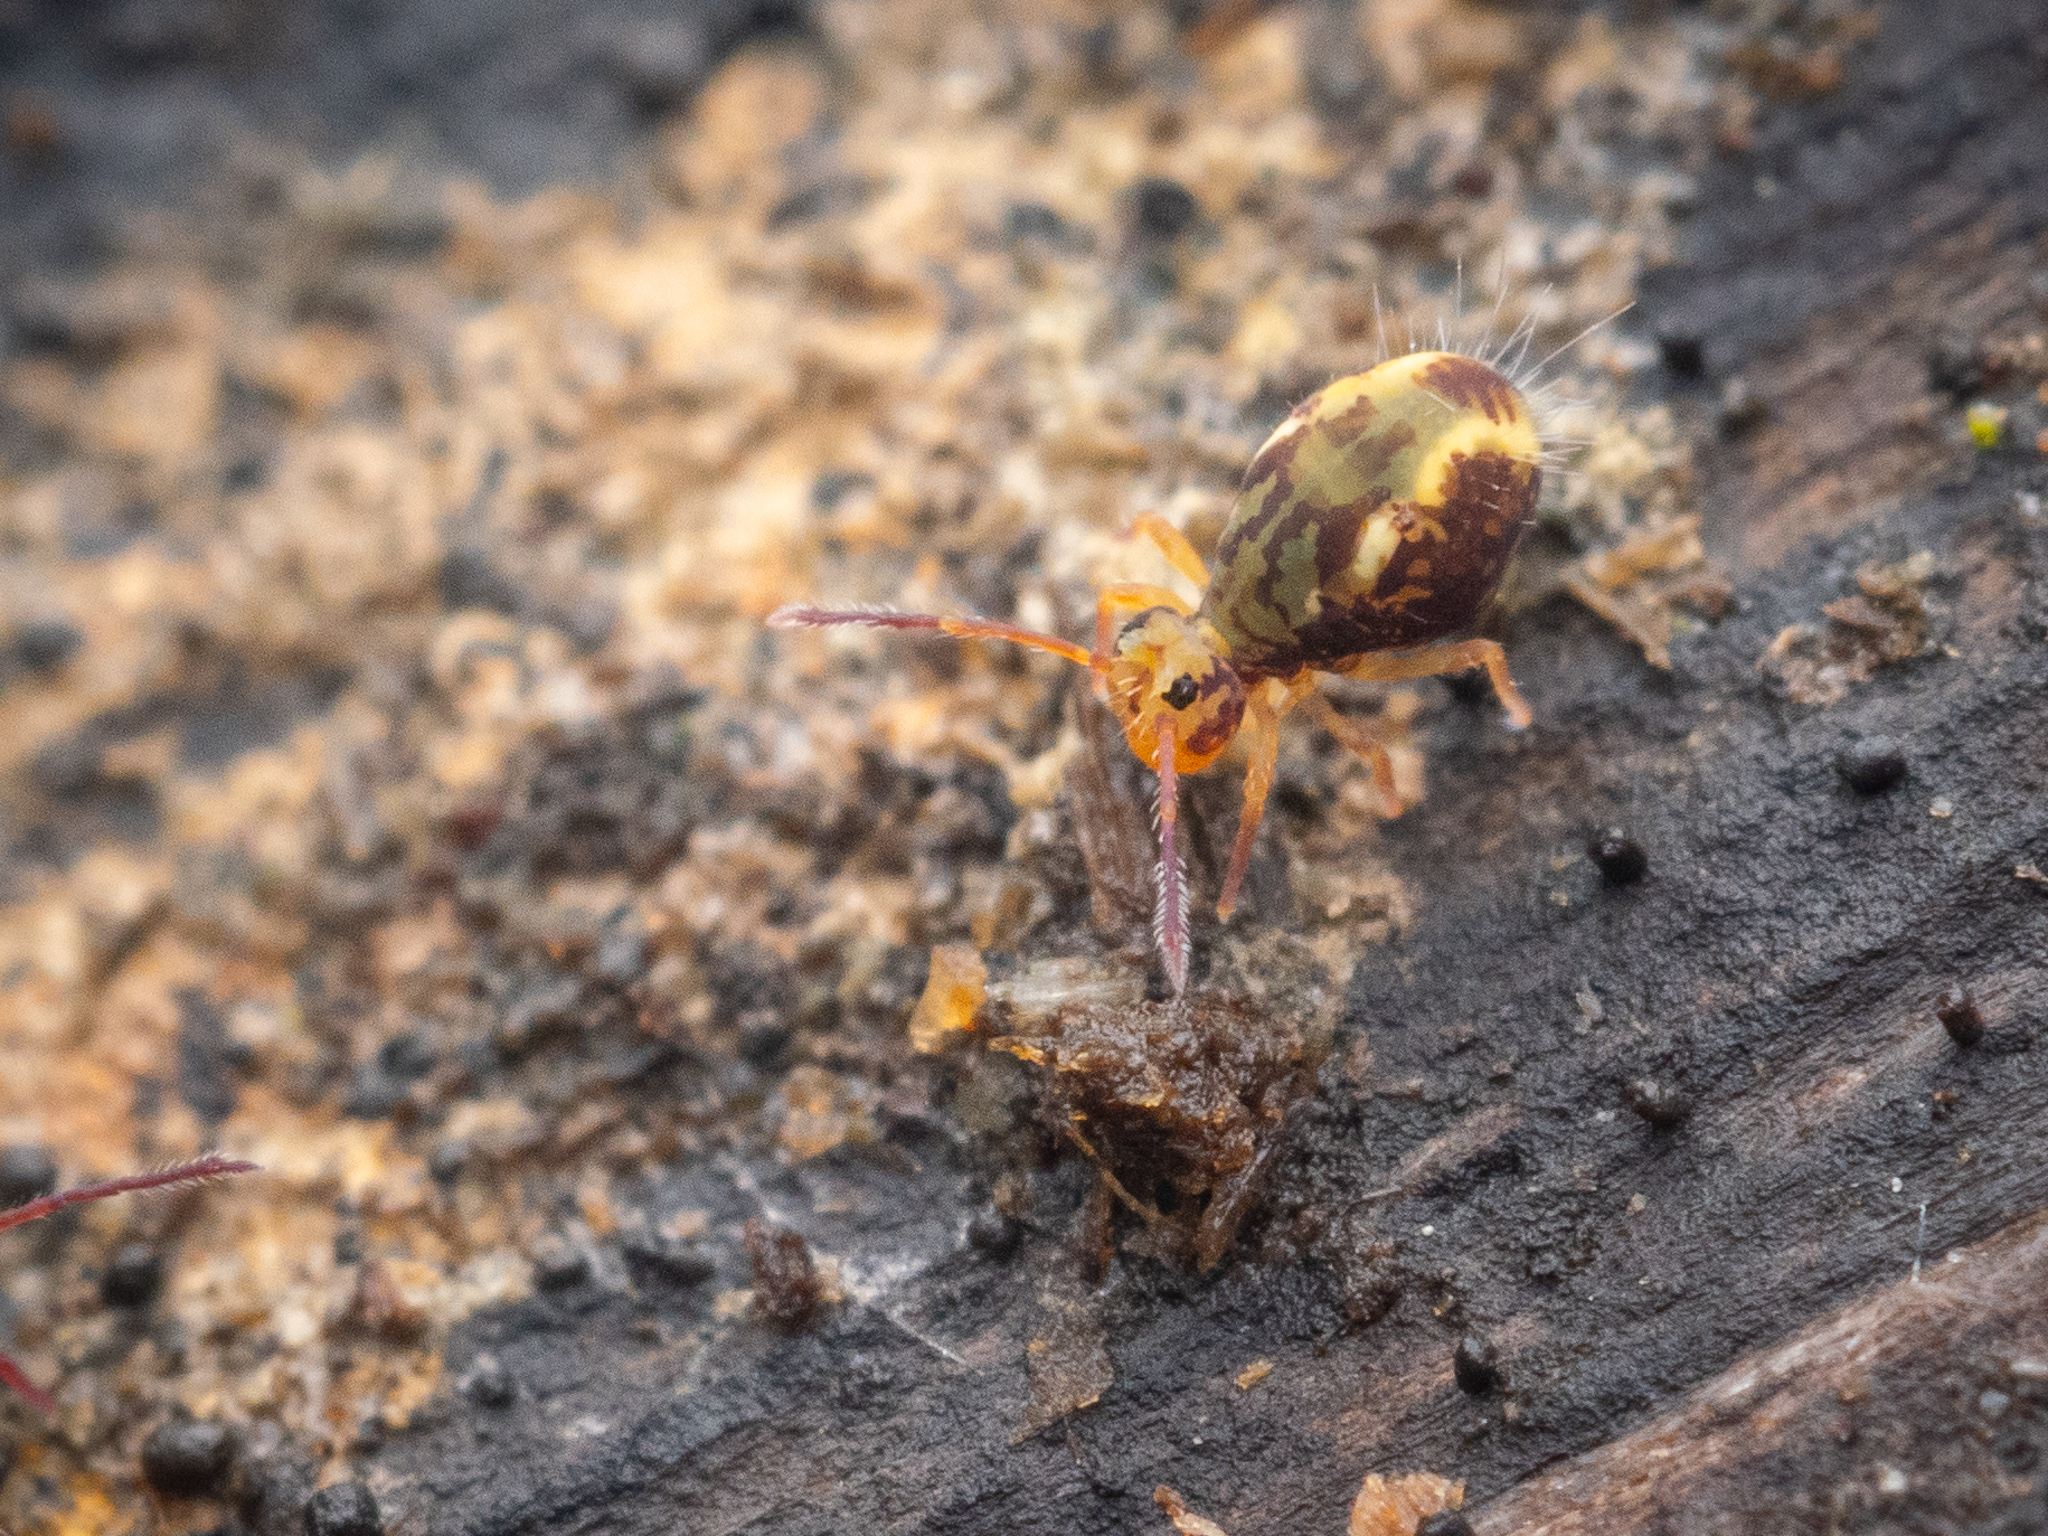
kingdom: Animalia
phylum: Arthropoda
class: Collembola
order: Symphypleona
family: Dicyrtomidae
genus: Dicyrtomina
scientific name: Dicyrtomina saundersi
